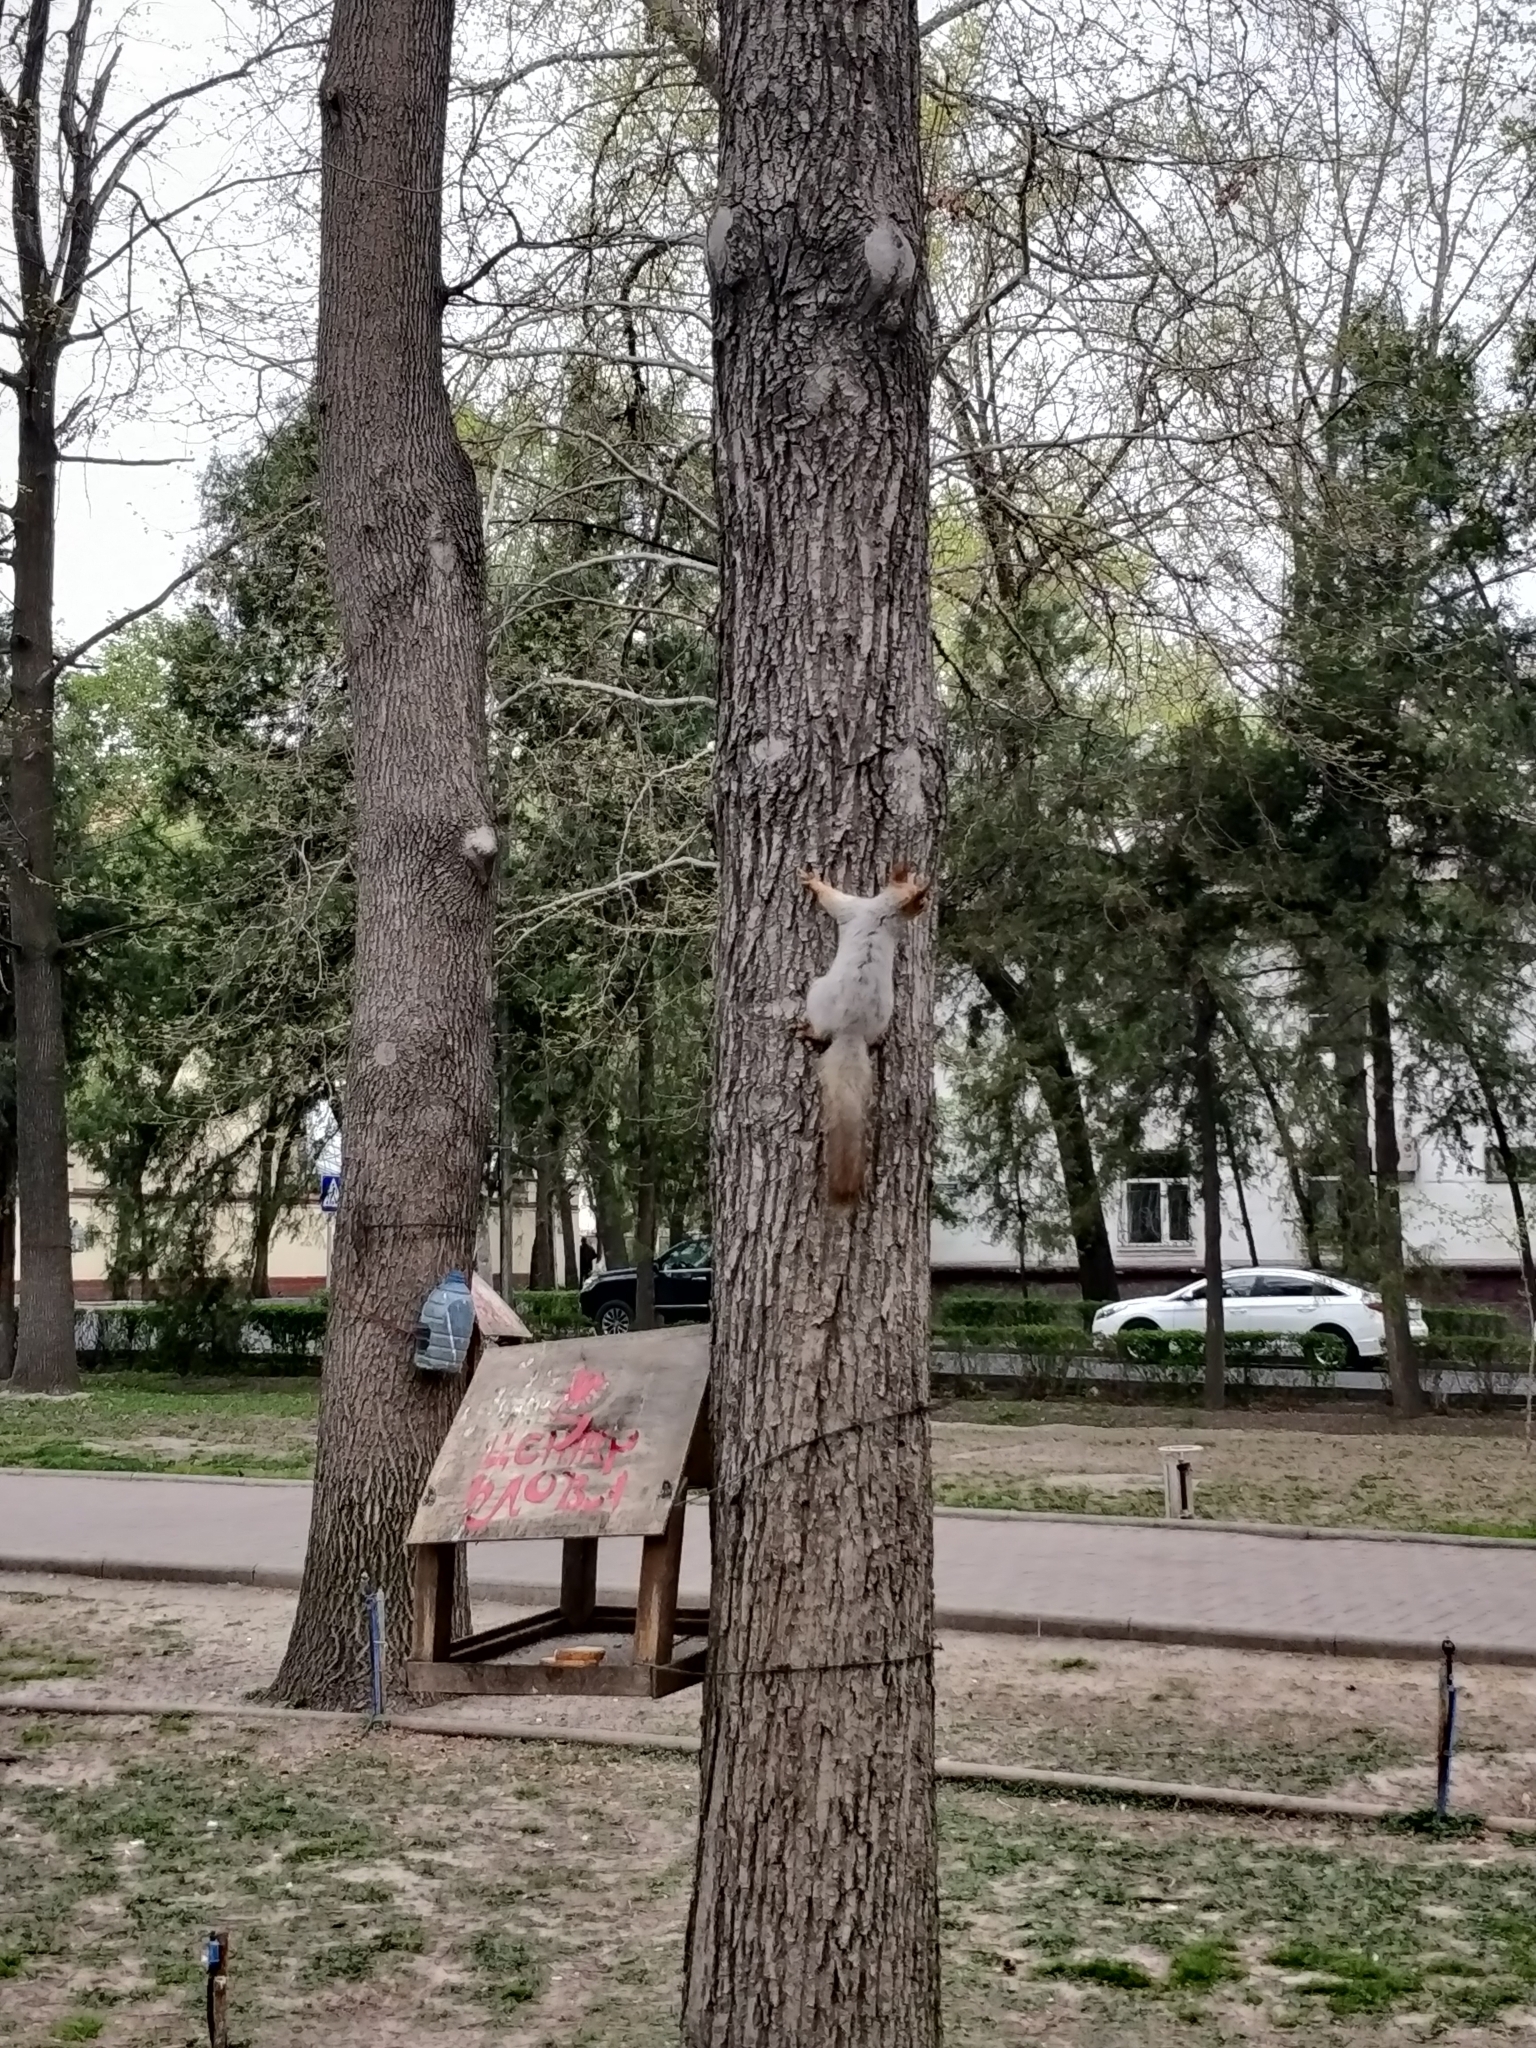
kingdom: Animalia
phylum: Chordata
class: Mammalia
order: Rodentia
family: Sciuridae
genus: Sciurus
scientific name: Sciurus vulgaris
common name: Eurasian red squirrel
